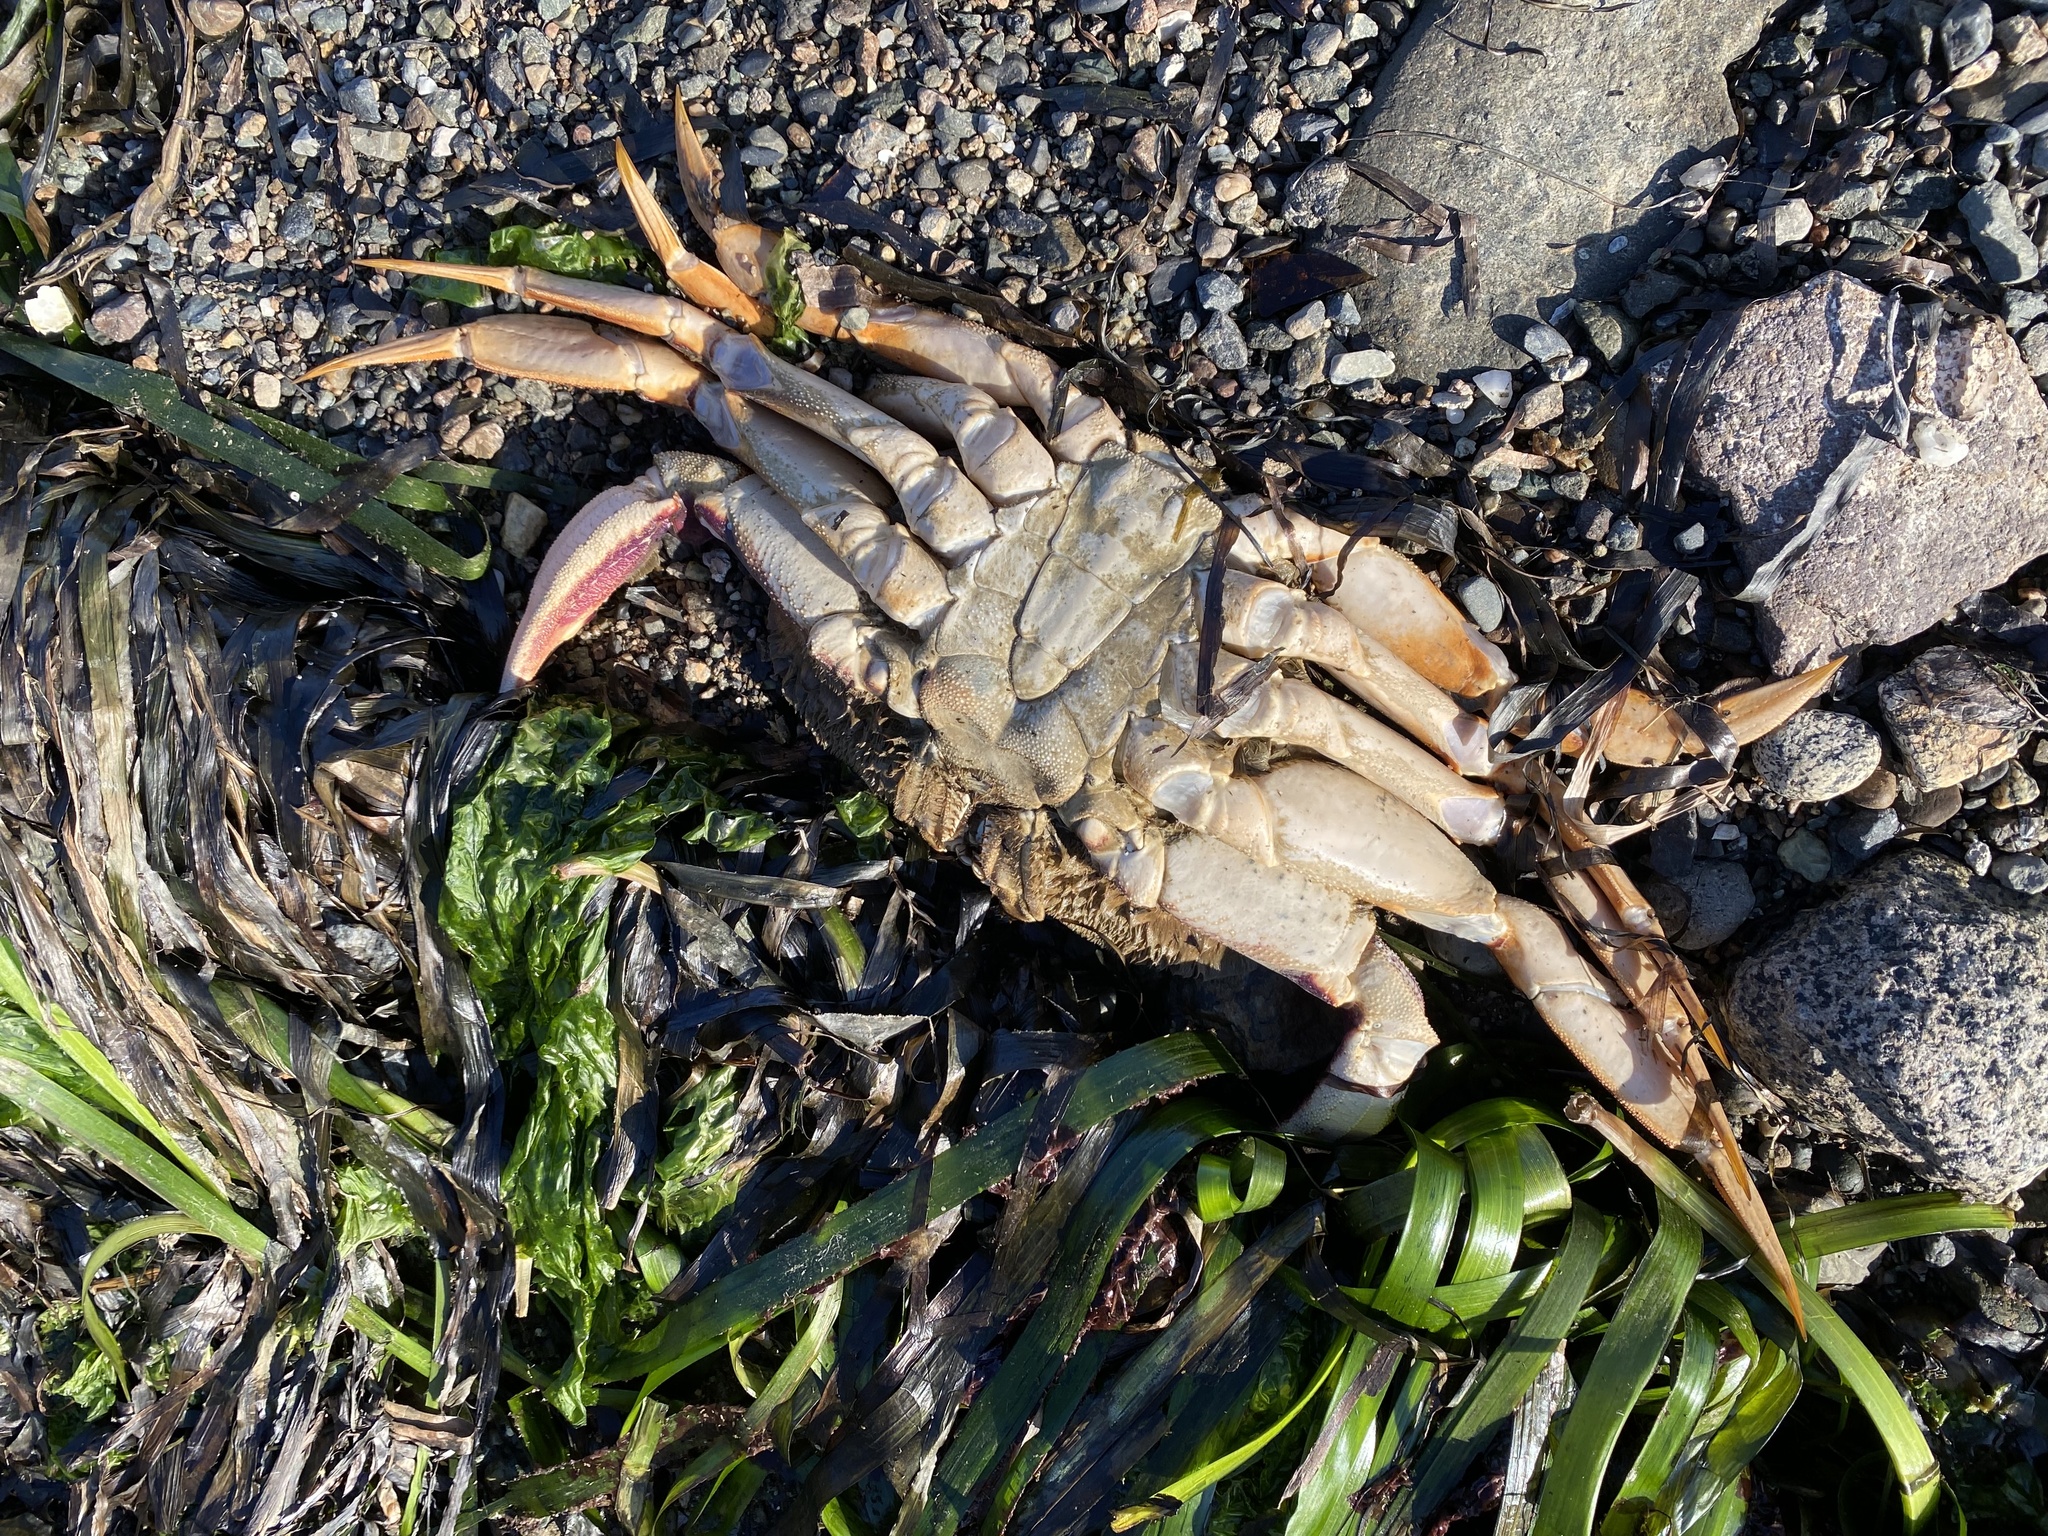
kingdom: Animalia
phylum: Arthropoda
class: Malacostraca
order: Decapoda
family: Cancridae
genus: Metacarcinus
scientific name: Metacarcinus magister
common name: Californian crab
